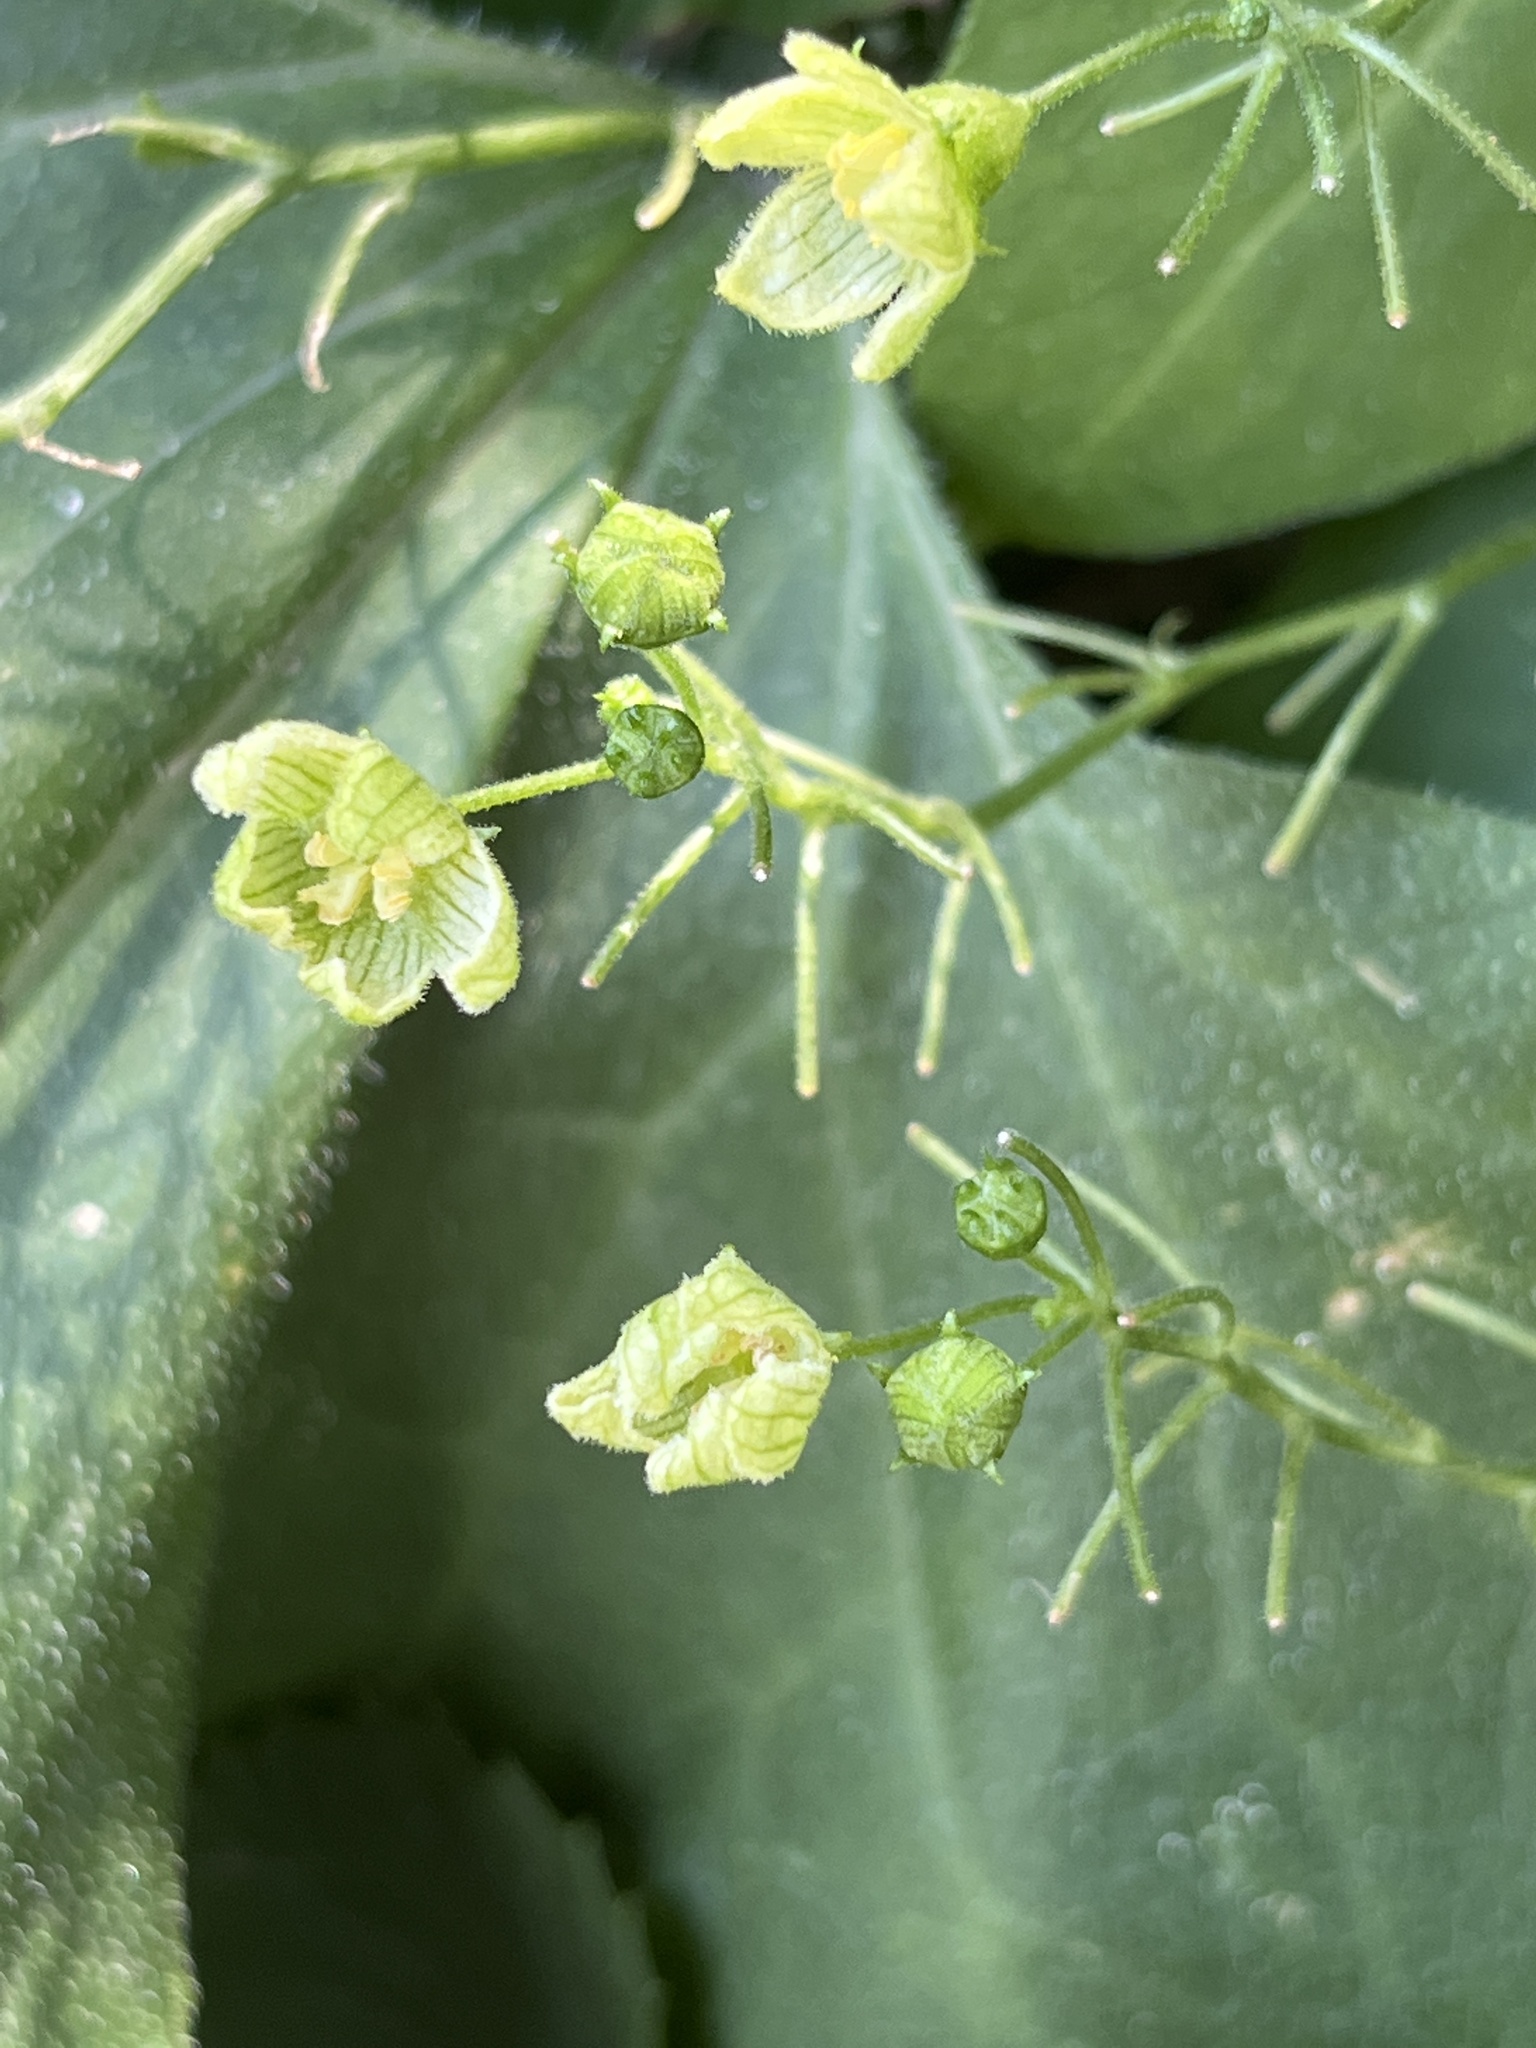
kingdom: Plantae
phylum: Tracheophyta
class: Magnoliopsida
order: Rosales
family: Cannabaceae
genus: Humulus
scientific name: Humulus lupulus
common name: Hop
